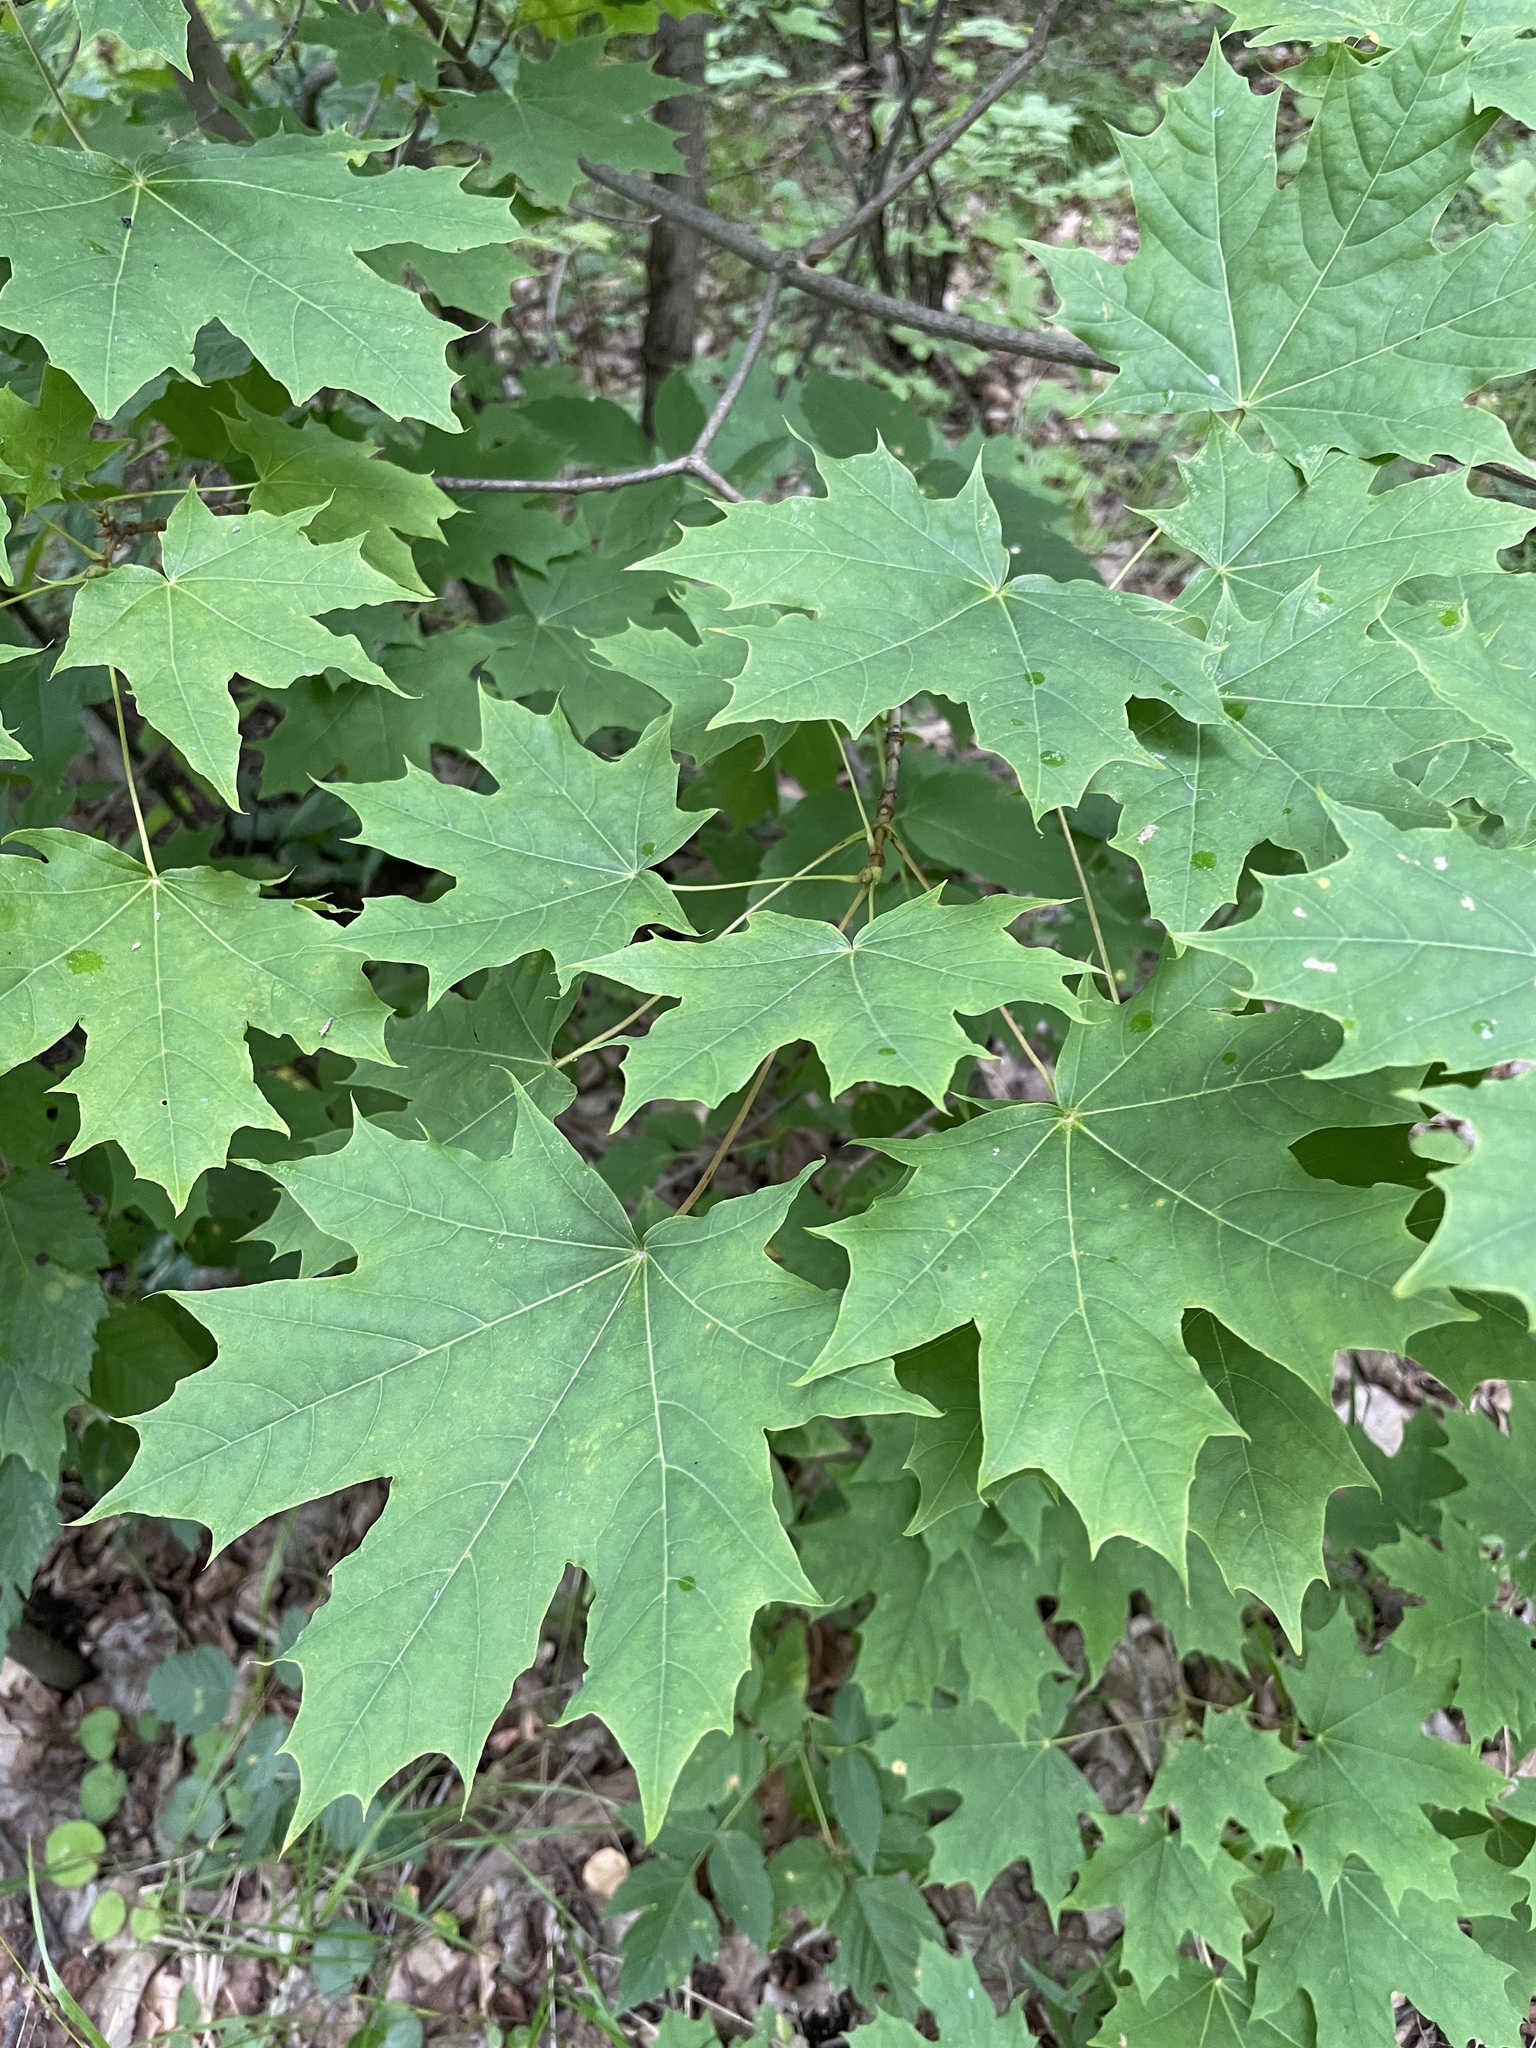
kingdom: Plantae
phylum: Tracheophyta
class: Magnoliopsida
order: Sapindales
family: Sapindaceae
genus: Acer
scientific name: Acer platanoides
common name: Norway maple
